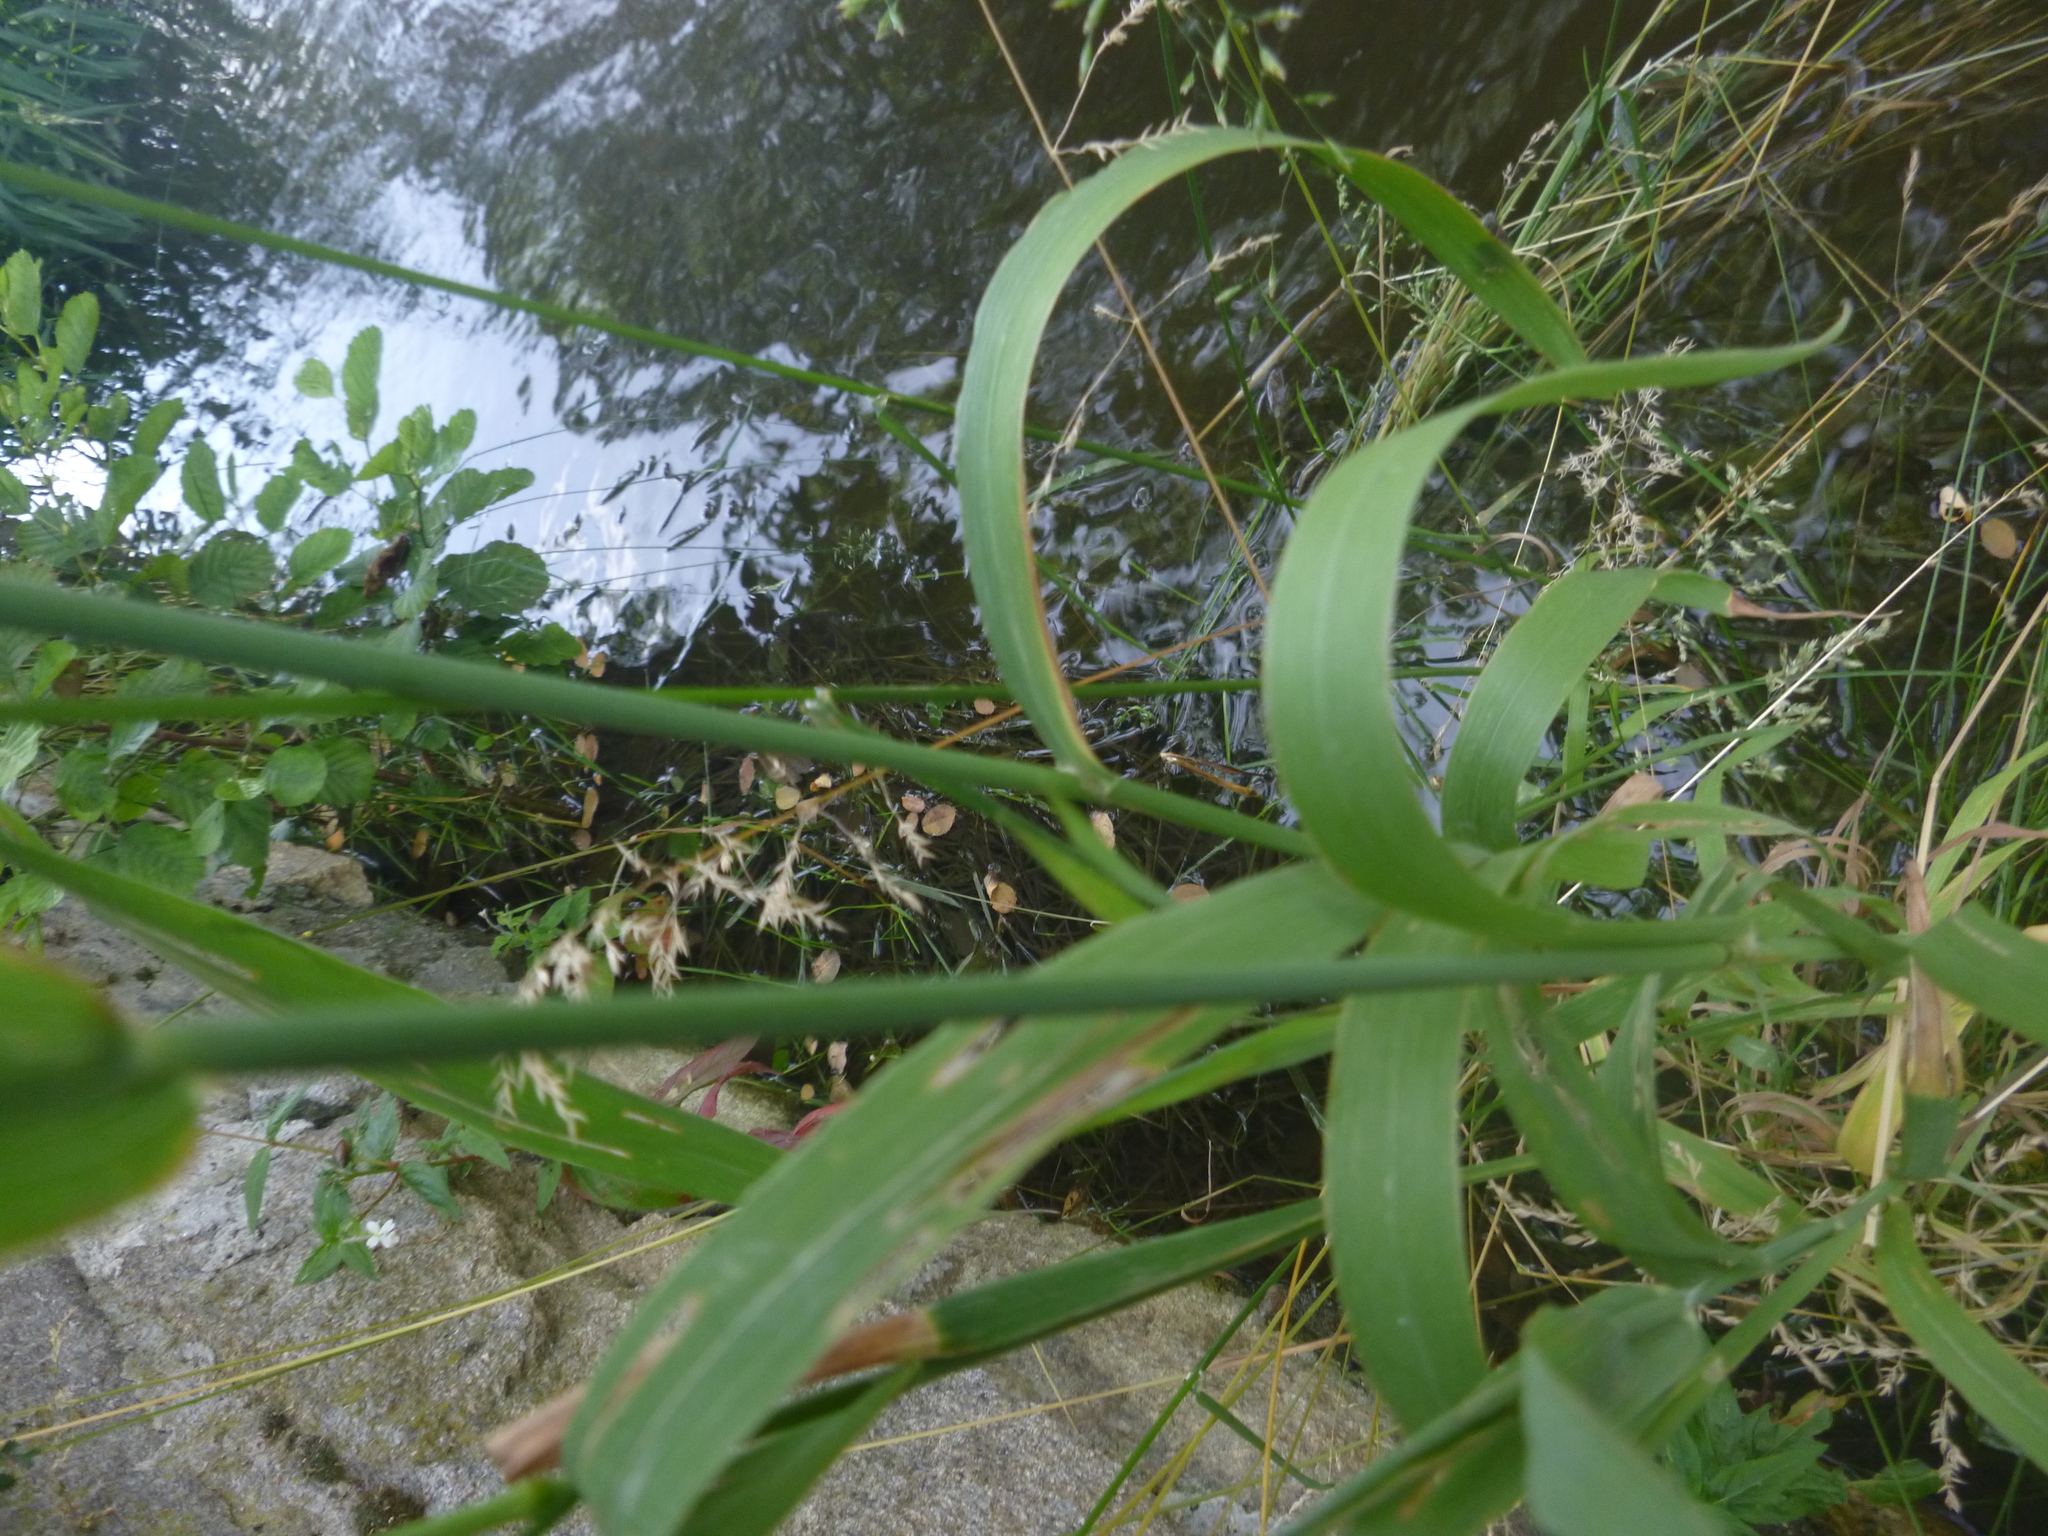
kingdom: Plantae
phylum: Tracheophyta
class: Liliopsida
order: Poales
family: Poaceae
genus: Phleum
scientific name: Phleum pratense
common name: Timothy grass
